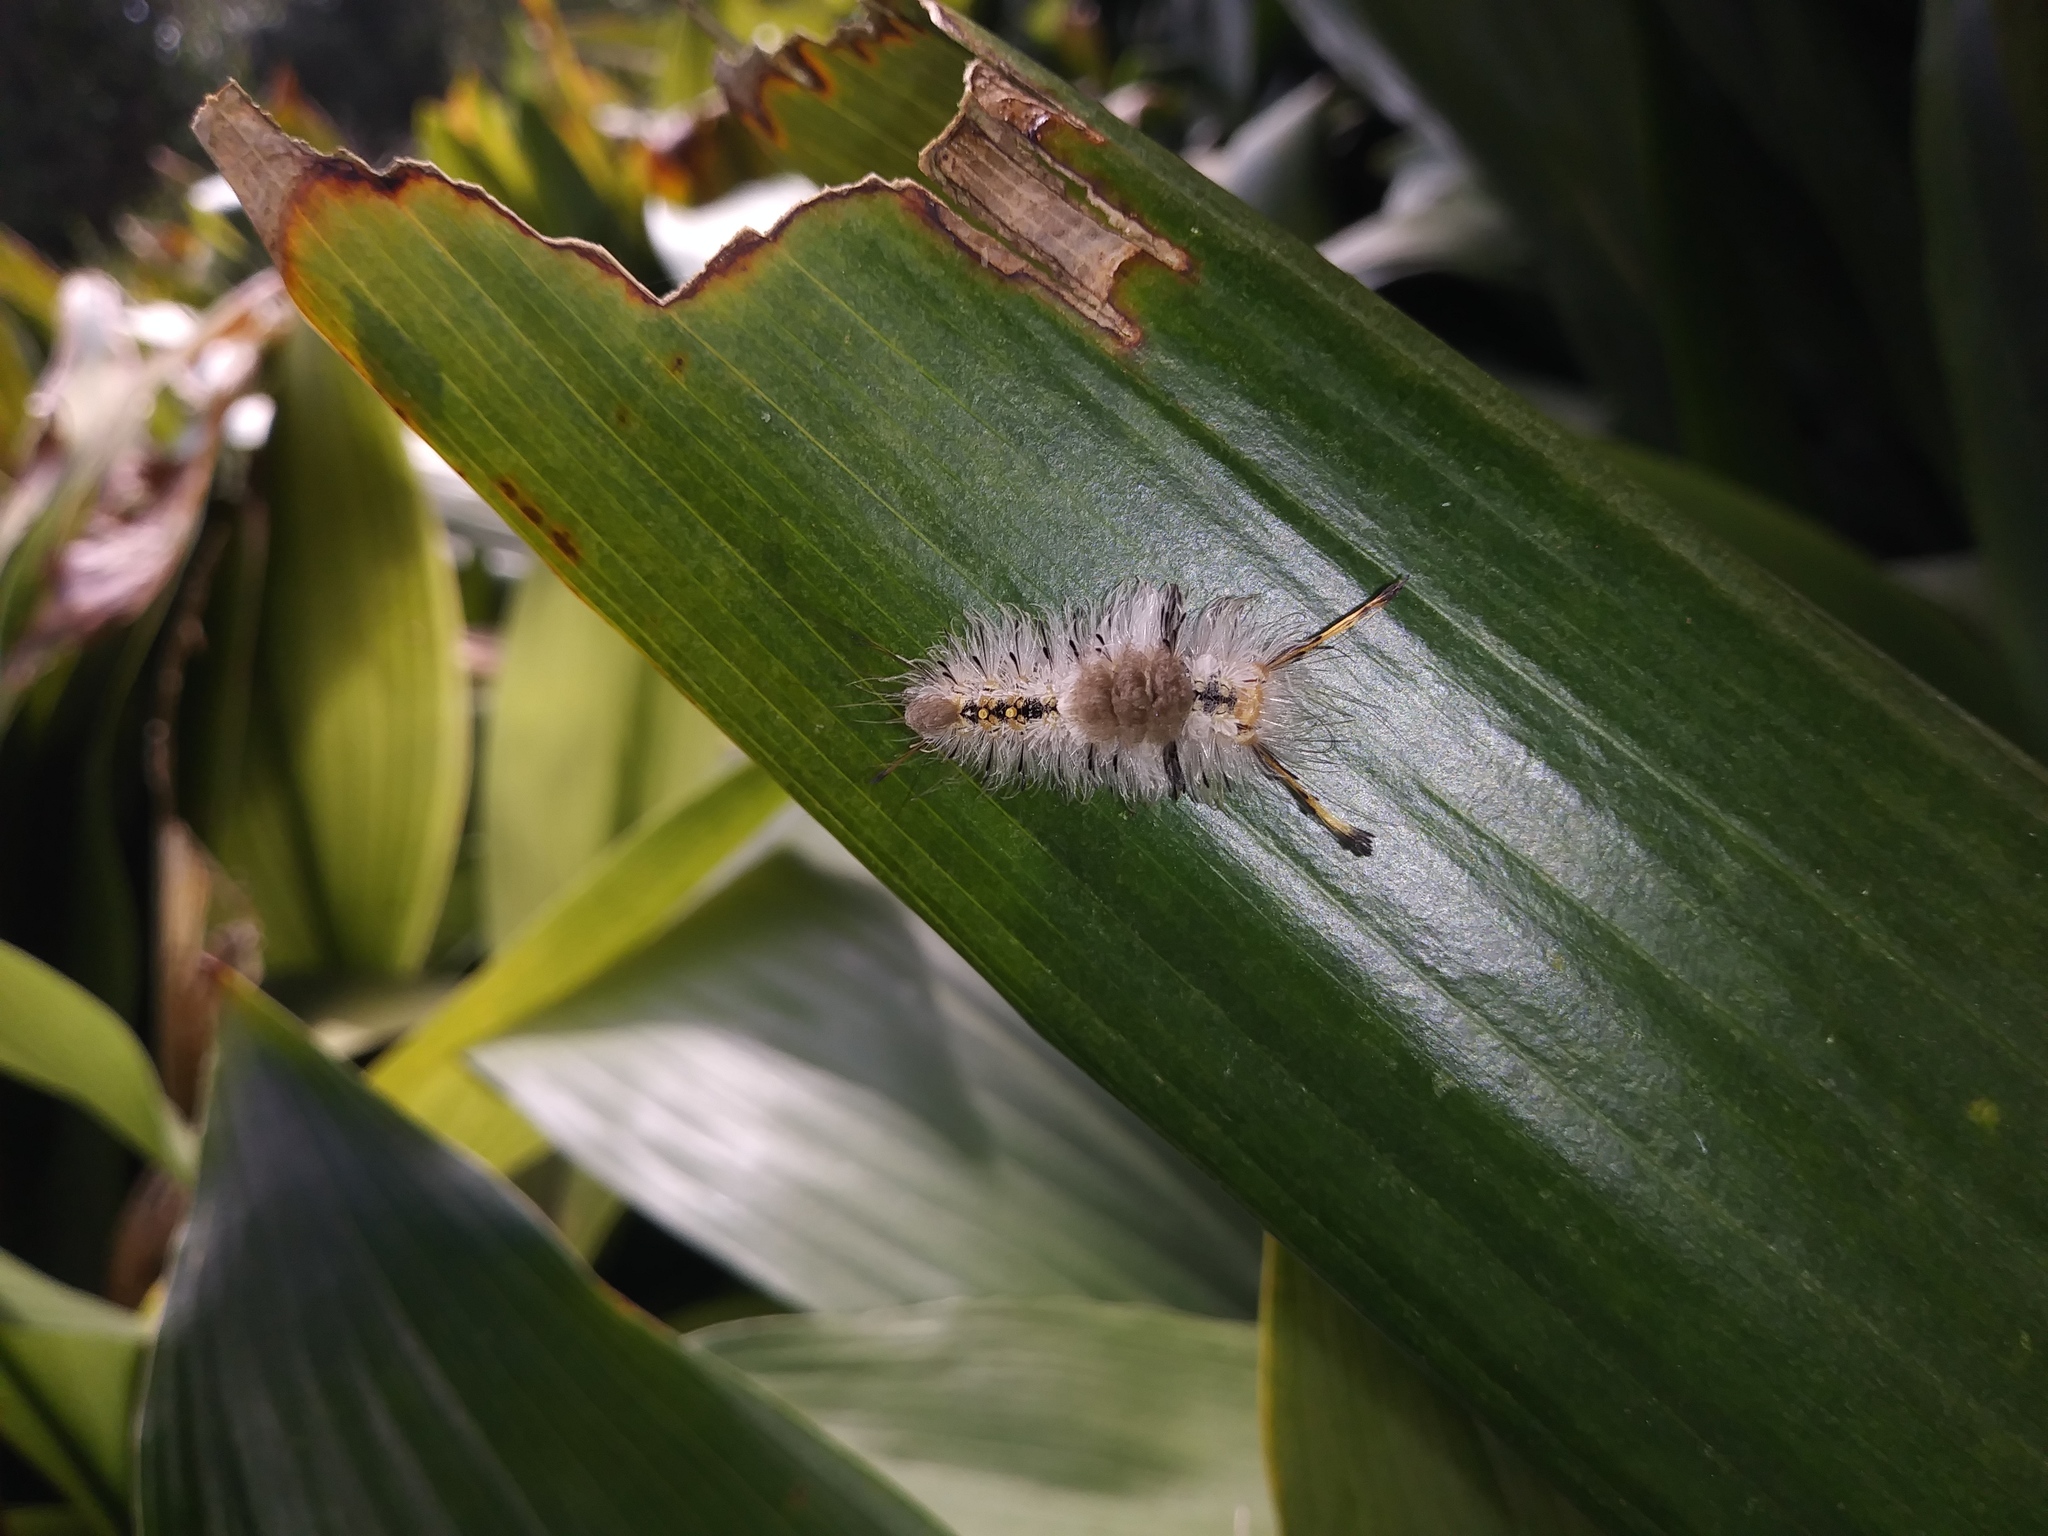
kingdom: Animalia
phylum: Arthropoda
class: Insecta
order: Lepidoptera
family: Erebidae
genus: Dasychira
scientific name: Dasychira meridionalis
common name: Southern tussock moth
